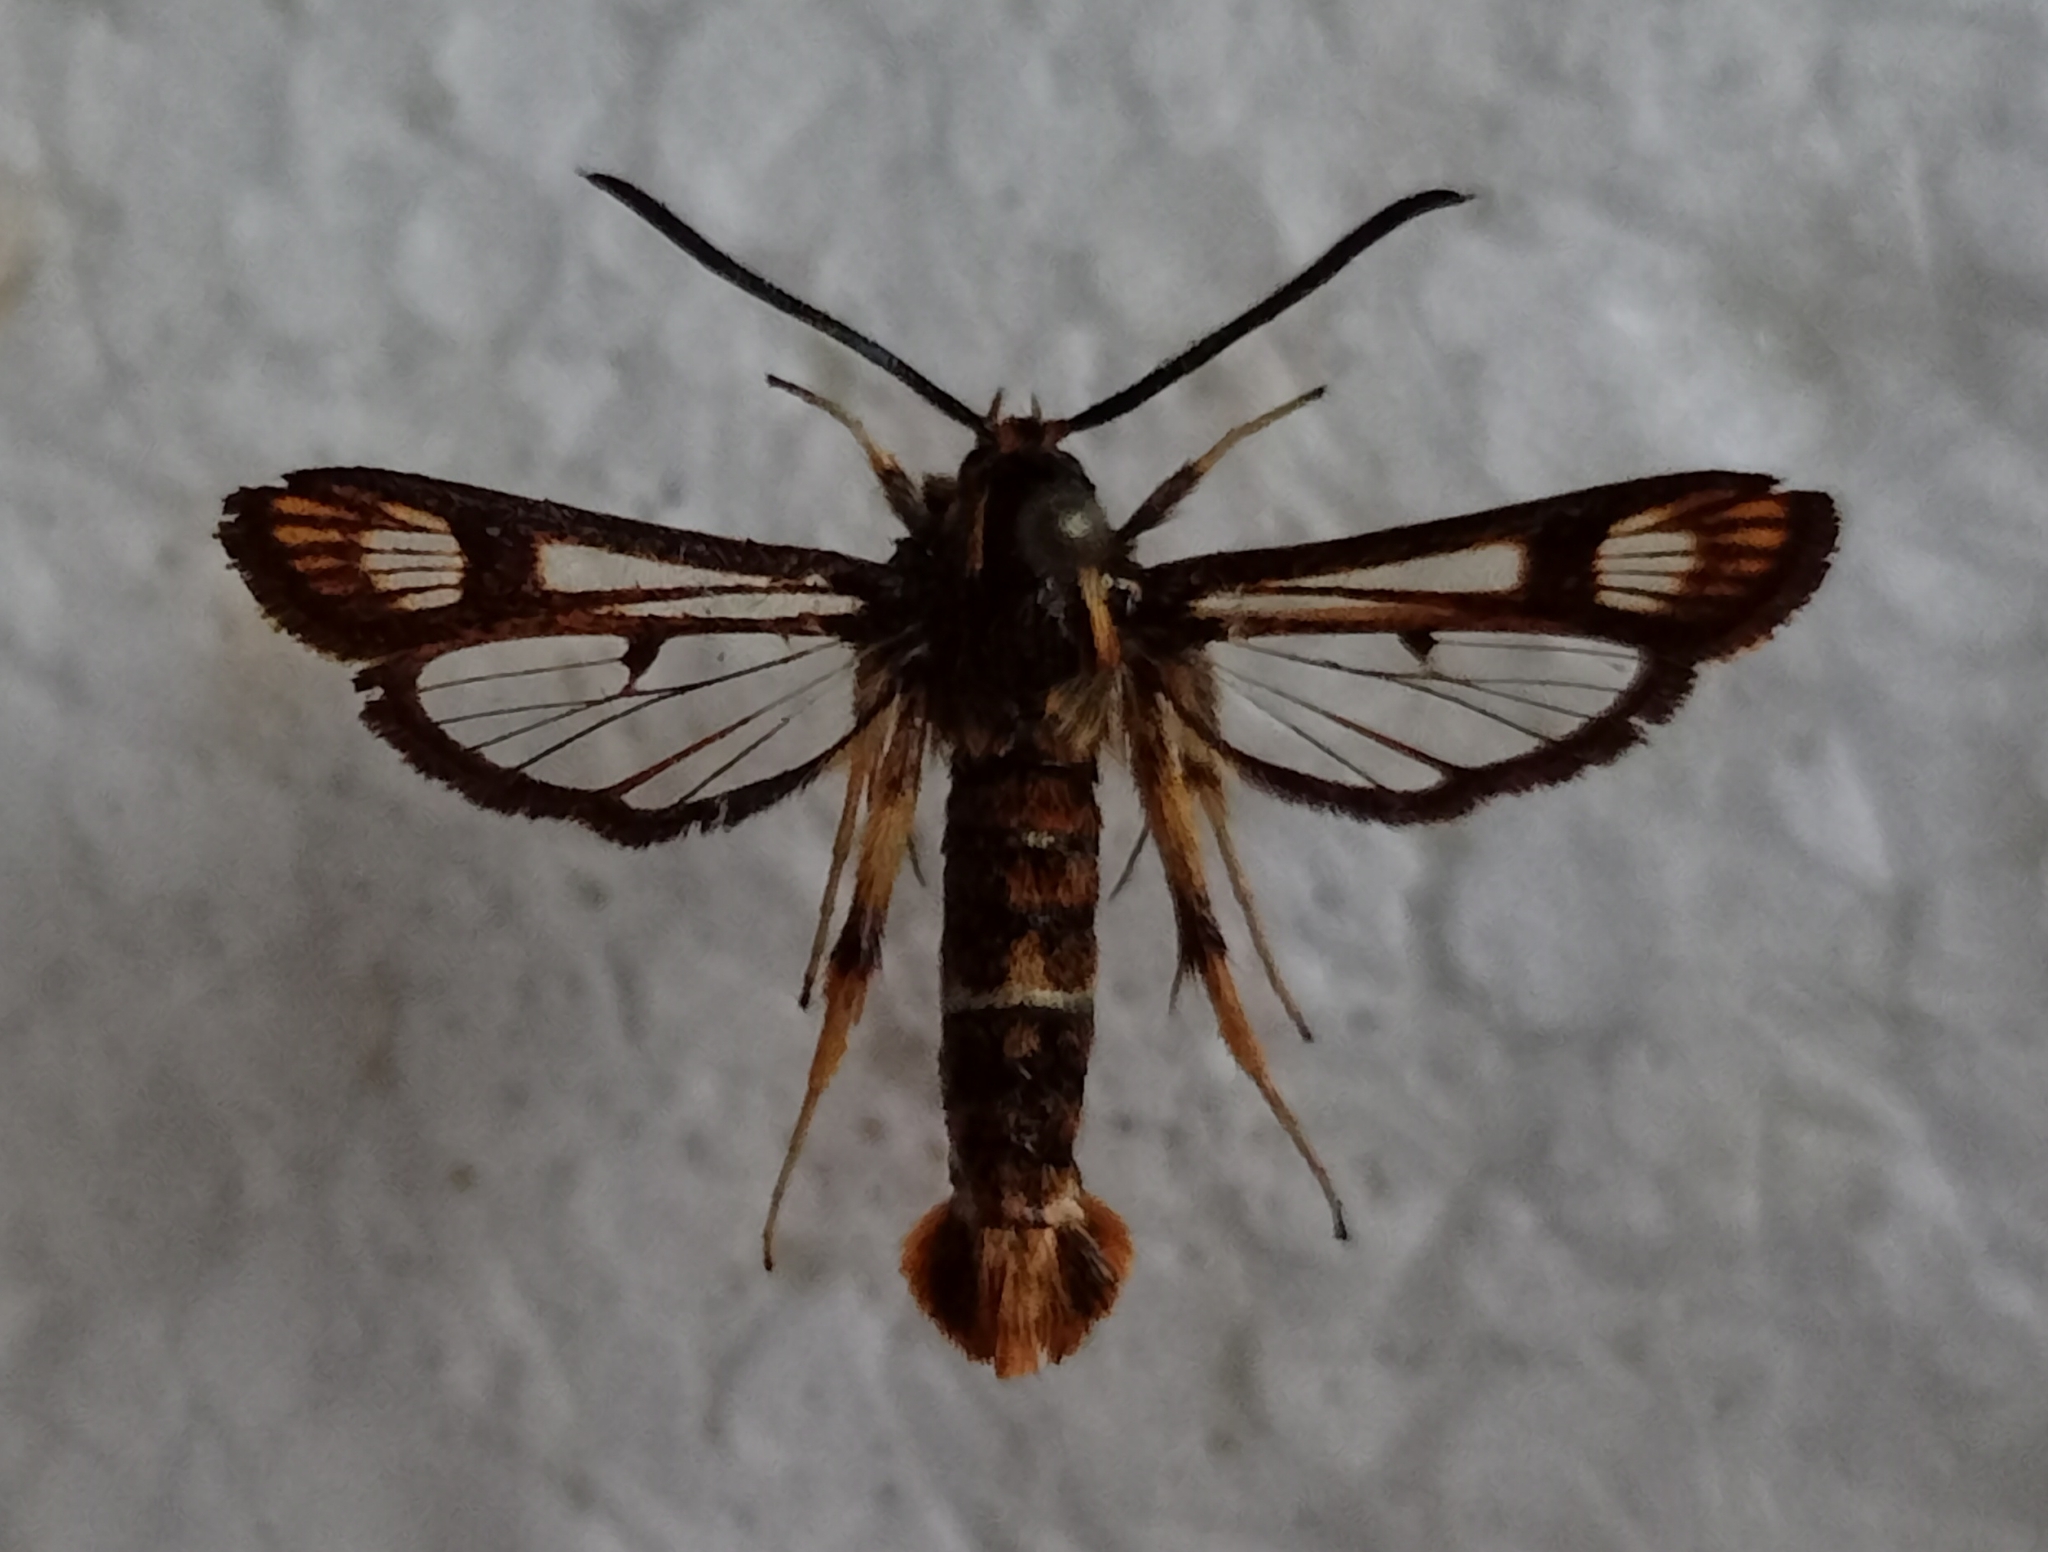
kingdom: Animalia
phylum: Arthropoda
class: Insecta
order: Lepidoptera
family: Sesiidae
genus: Chamaesphecia
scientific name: Chamaesphecia euceraeformis
